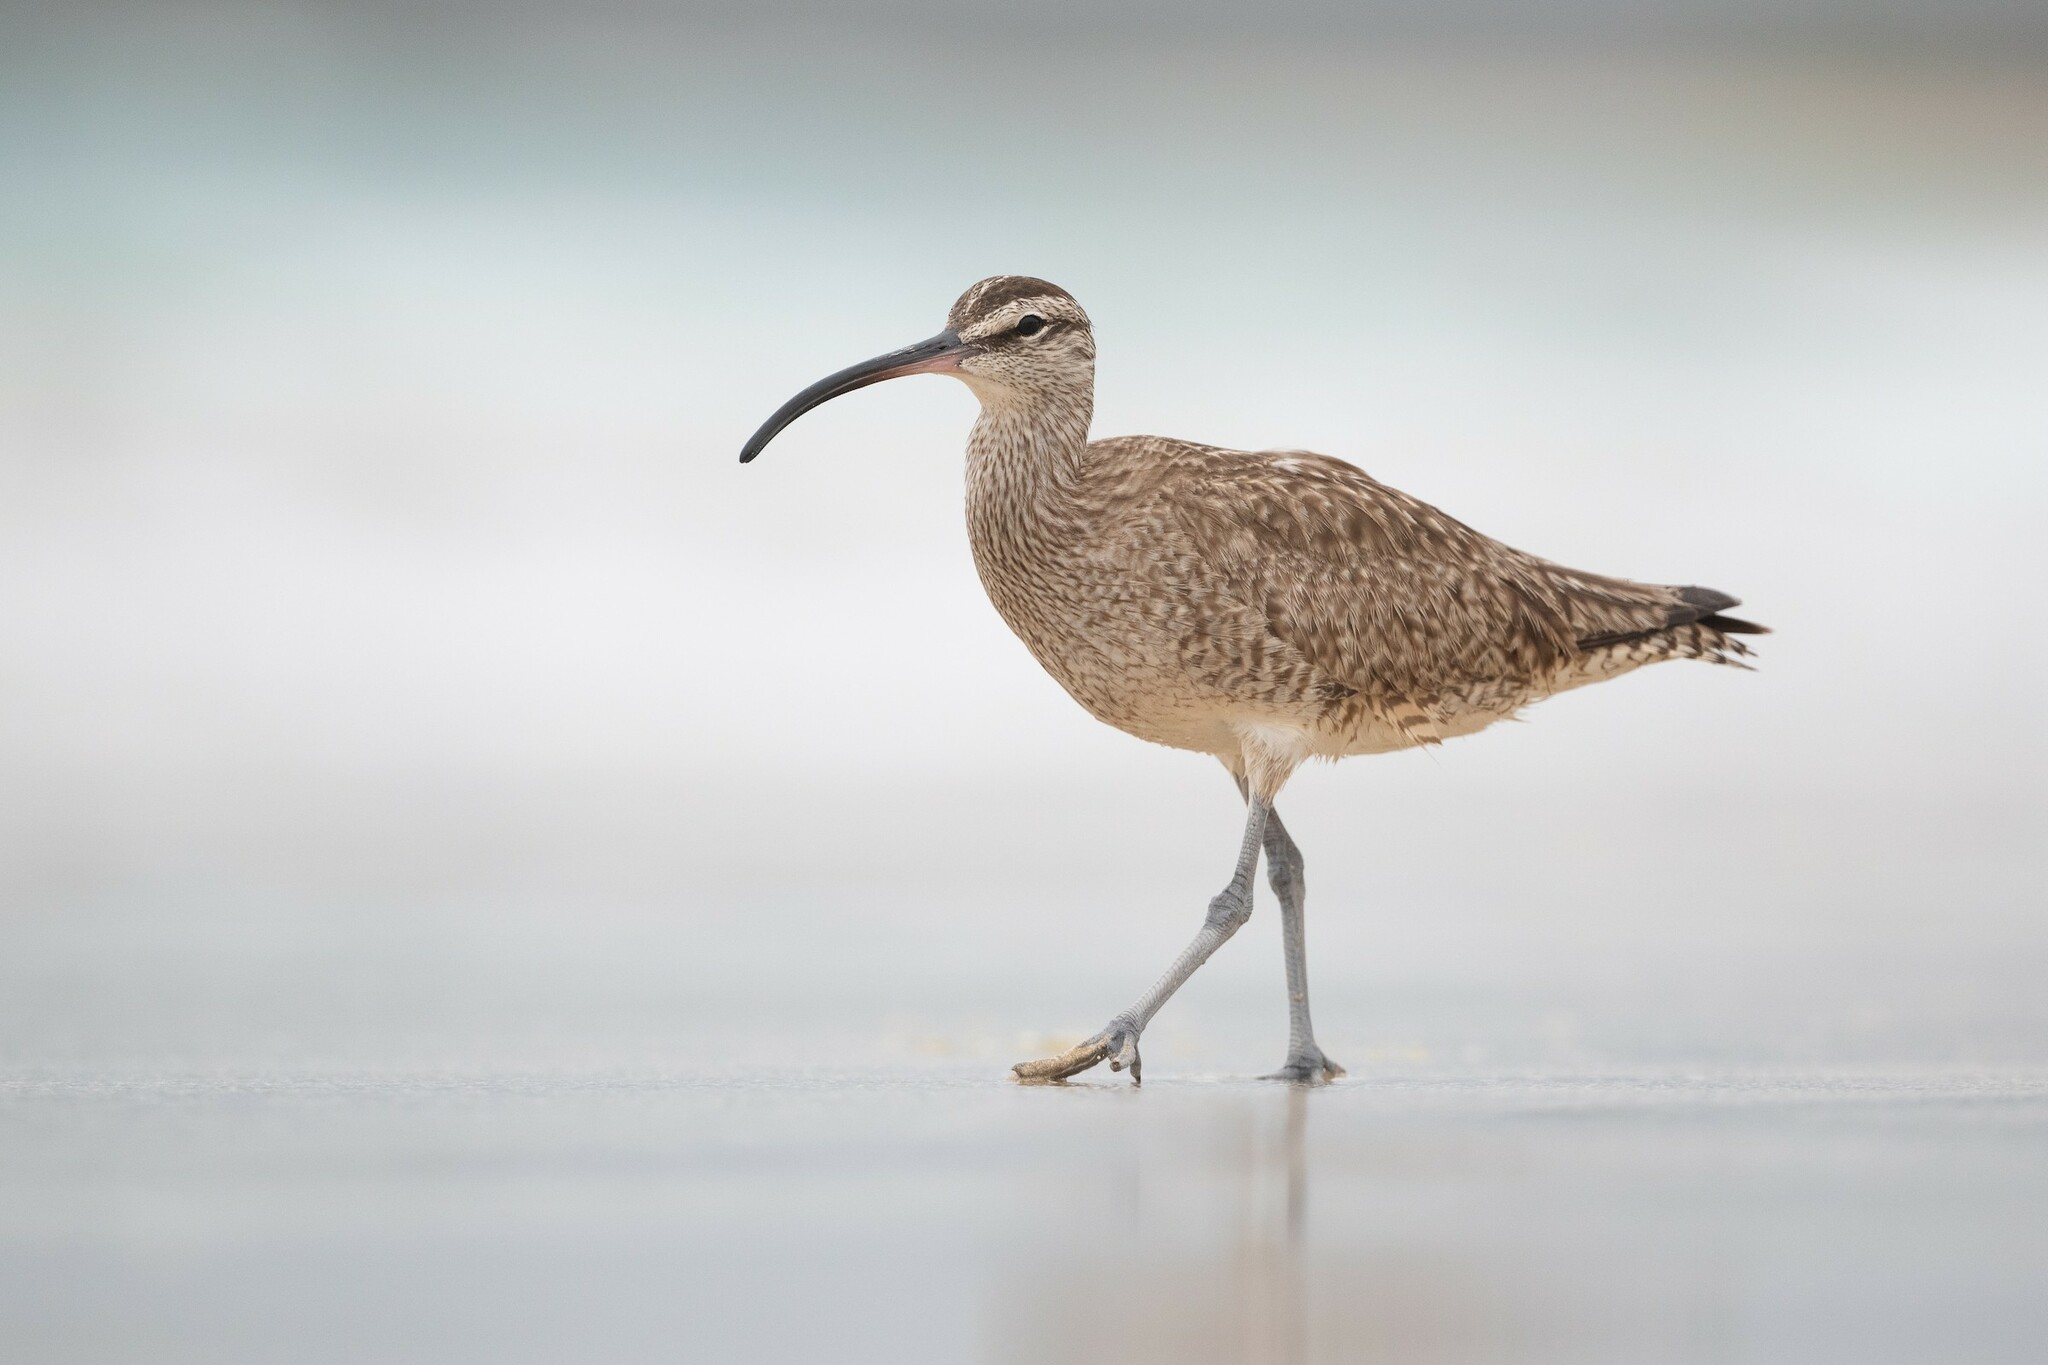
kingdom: Animalia
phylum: Chordata
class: Aves
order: Charadriiformes
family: Scolopacidae
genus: Numenius
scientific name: Numenius phaeopus
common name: Whimbrel
